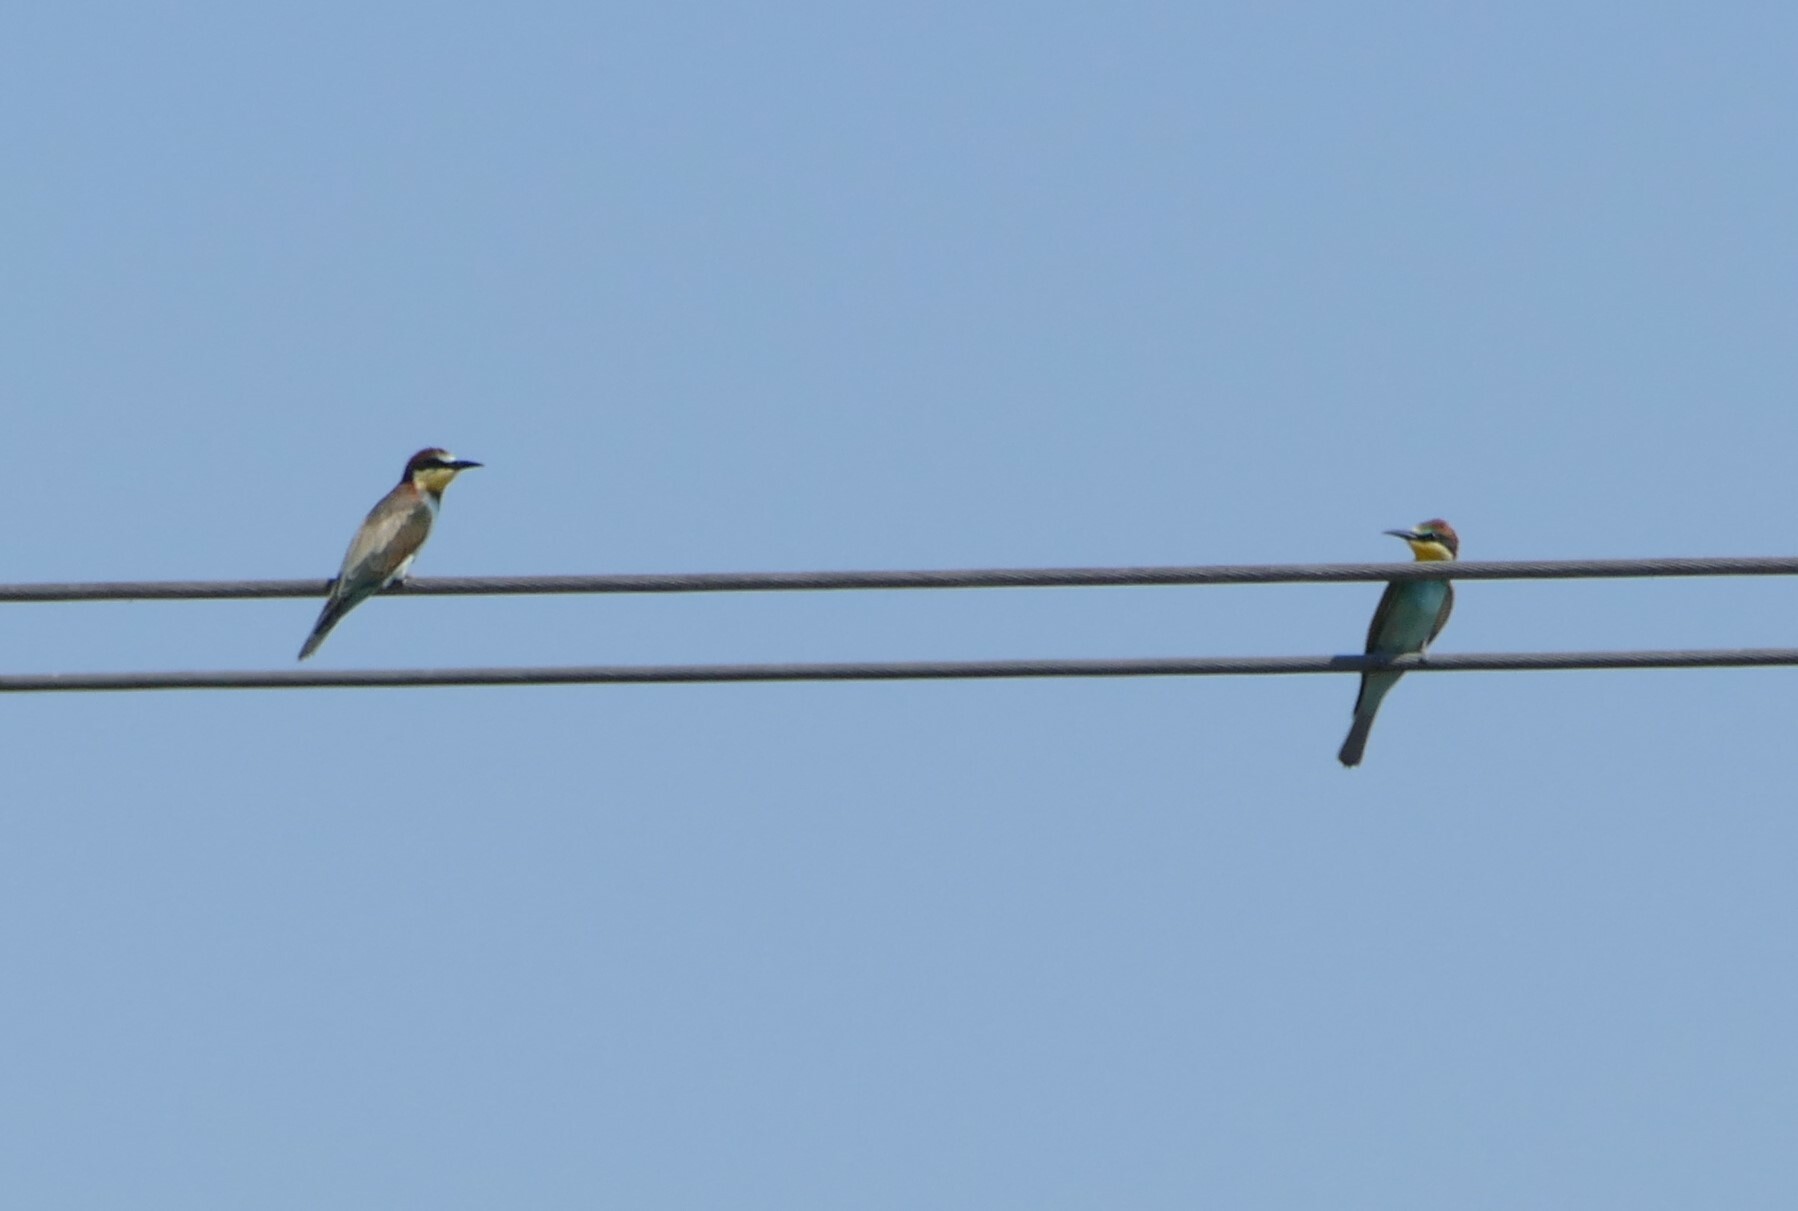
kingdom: Animalia
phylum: Chordata
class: Aves
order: Coraciiformes
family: Meropidae
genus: Merops
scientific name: Merops apiaster
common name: European bee-eater
